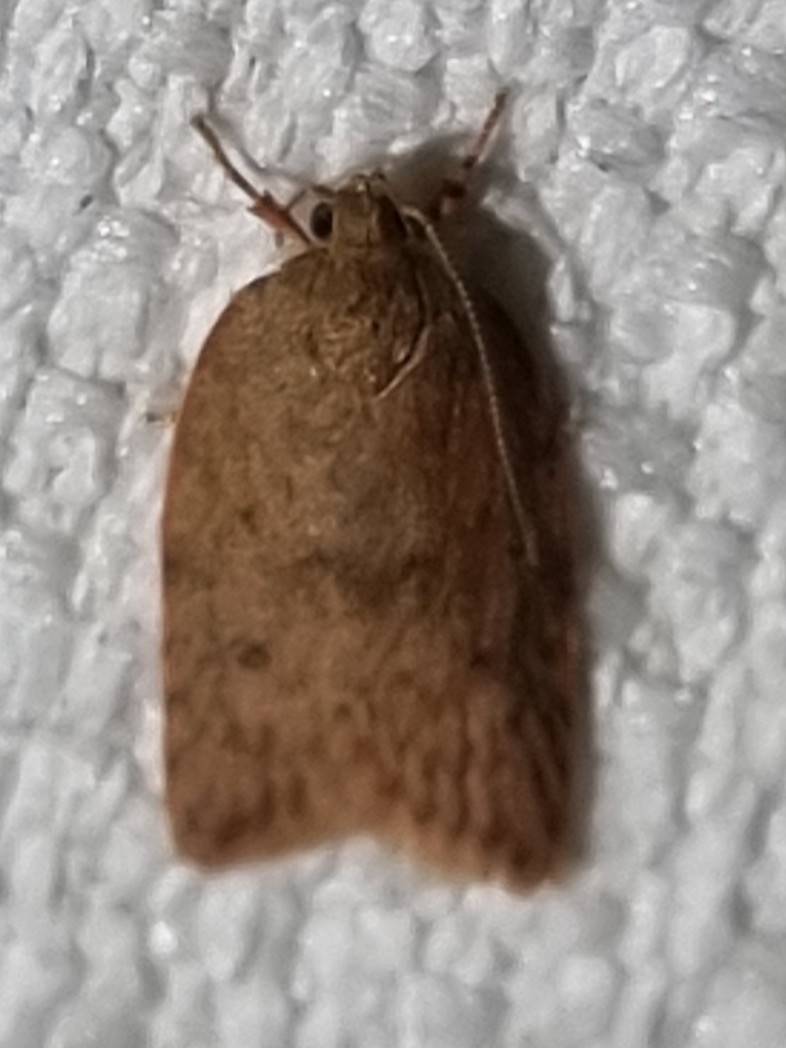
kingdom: Animalia
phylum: Arthropoda
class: Insecta
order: Lepidoptera
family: Oecophoridae
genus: Garrha
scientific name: Garrha costimacula
